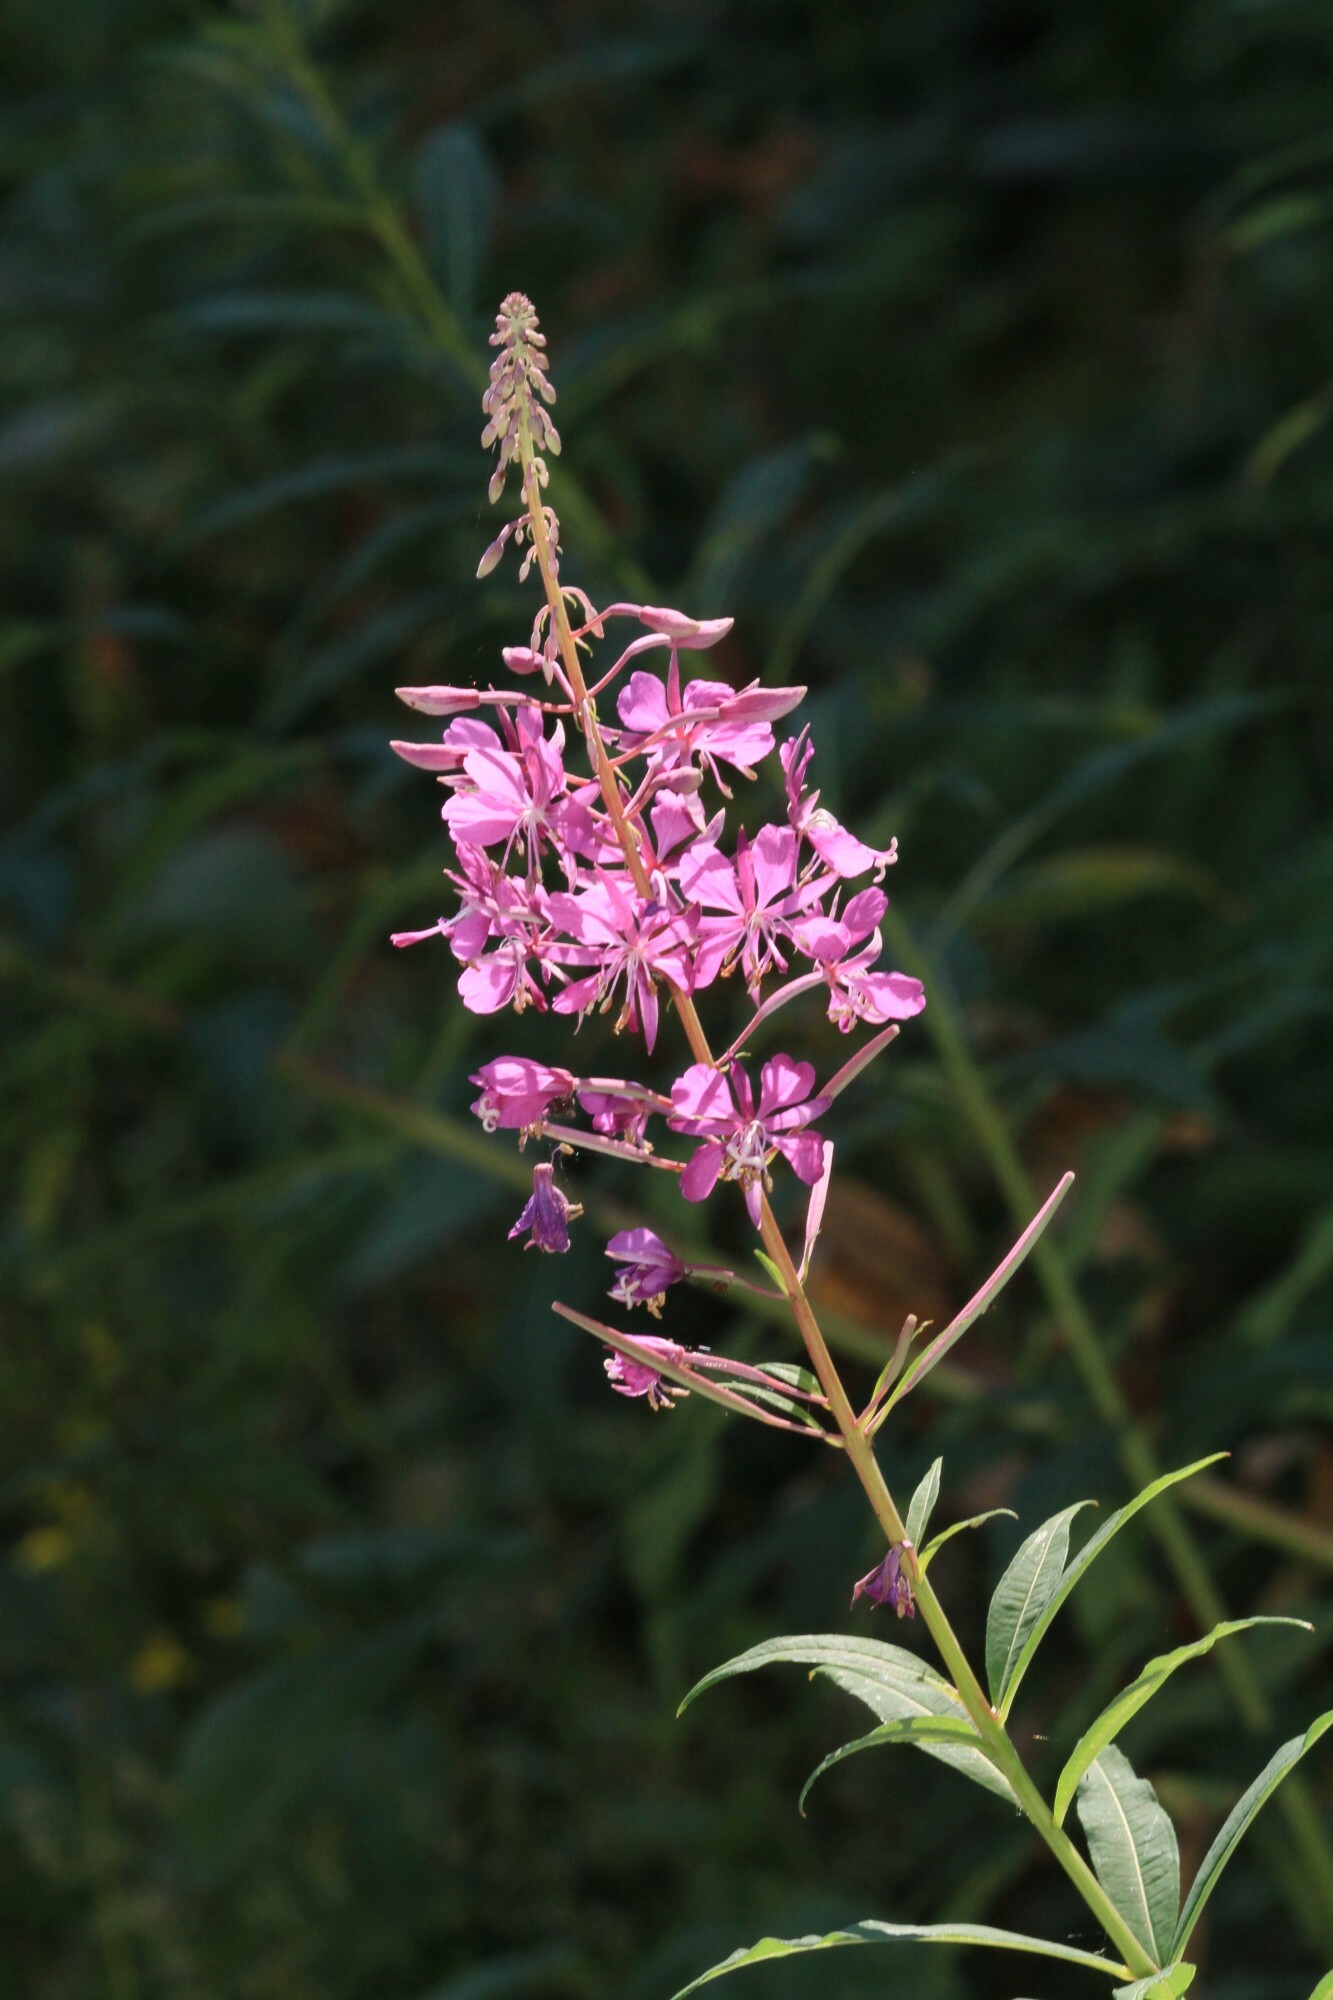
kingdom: Plantae
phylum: Tracheophyta
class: Magnoliopsida
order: Myrtales
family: Onagraceae
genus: Chamaenerion
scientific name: Chamaenerion angustifolium
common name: Fireweed
